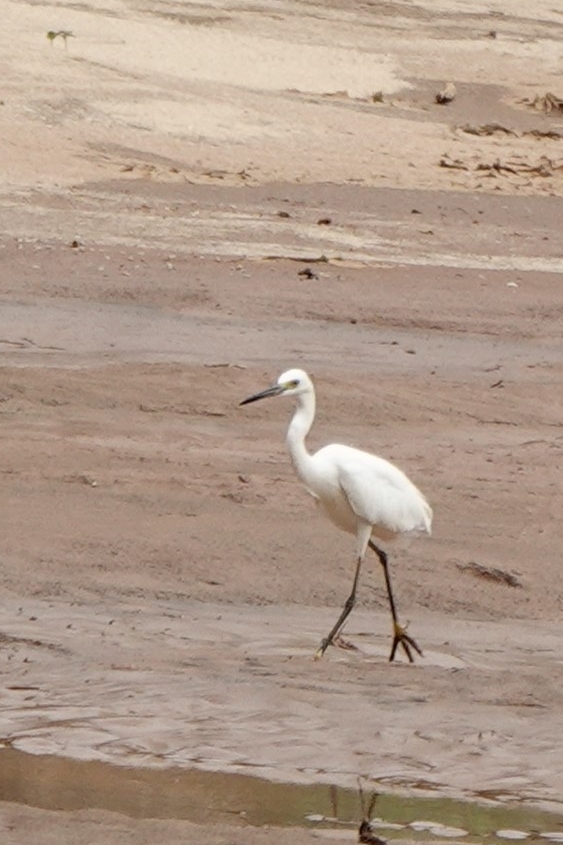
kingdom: Animalia
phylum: Chordata
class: Aves
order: Pelecaniformes
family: Ardeidae
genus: Egretta
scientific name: Egretta dimorpha
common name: Dimorphic egret
